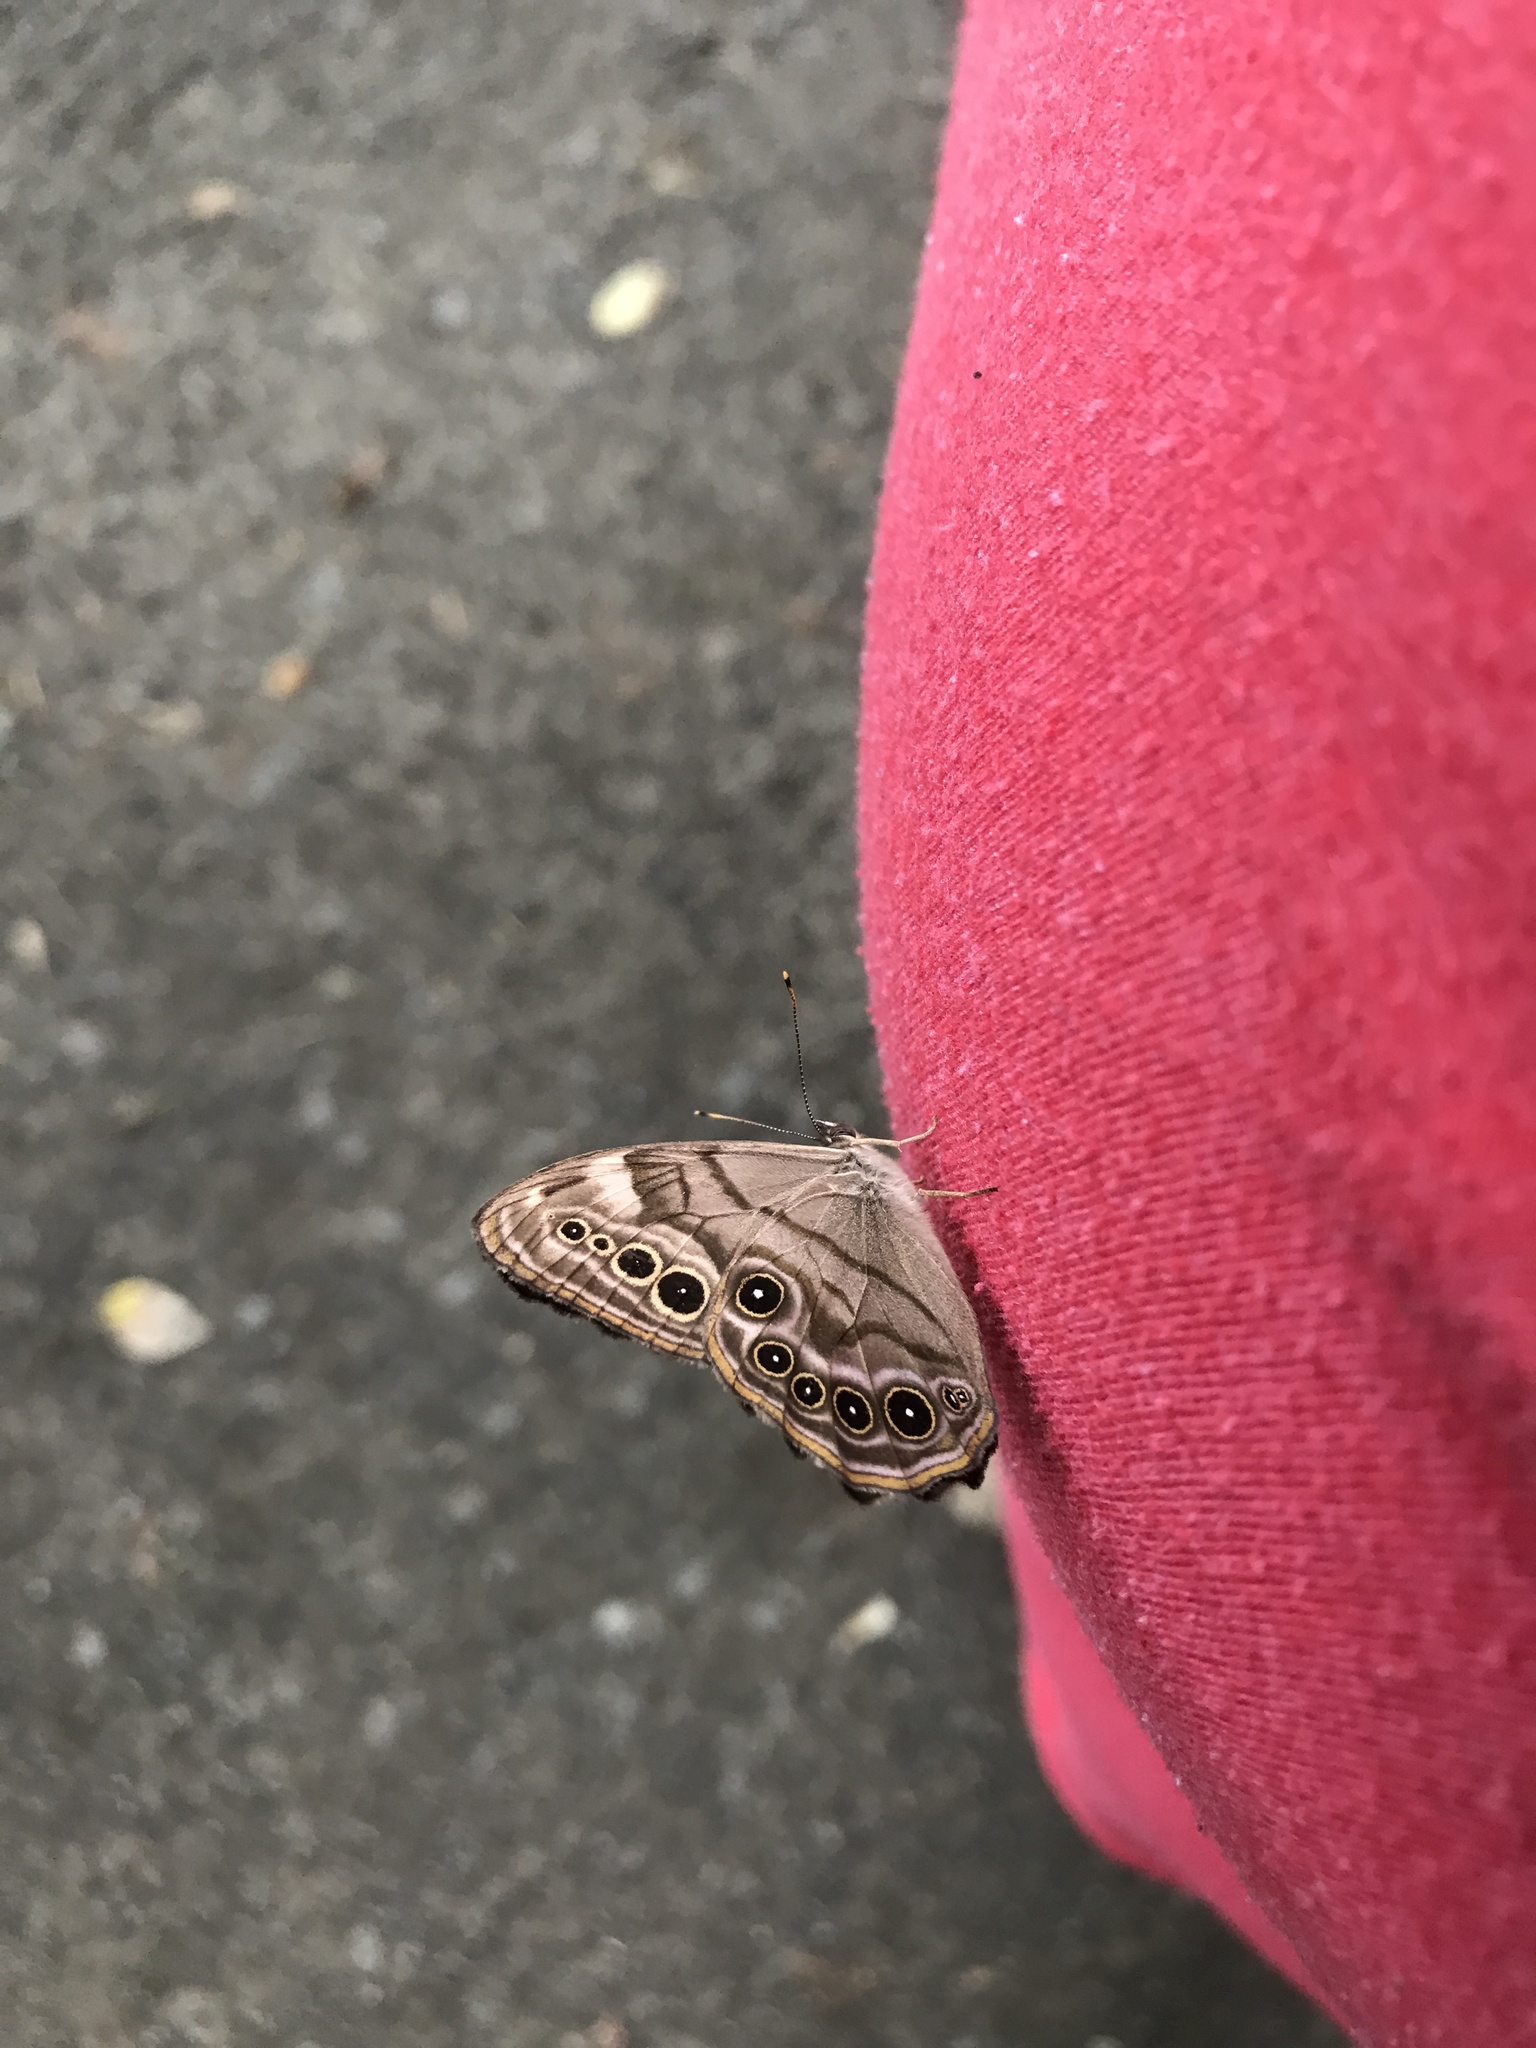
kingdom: Animalia
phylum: Arthropoda
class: Insecta
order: Lepidoptera
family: Nymphalidae
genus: Lethe
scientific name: Lethe anthedon
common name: Northern pearly-eye
